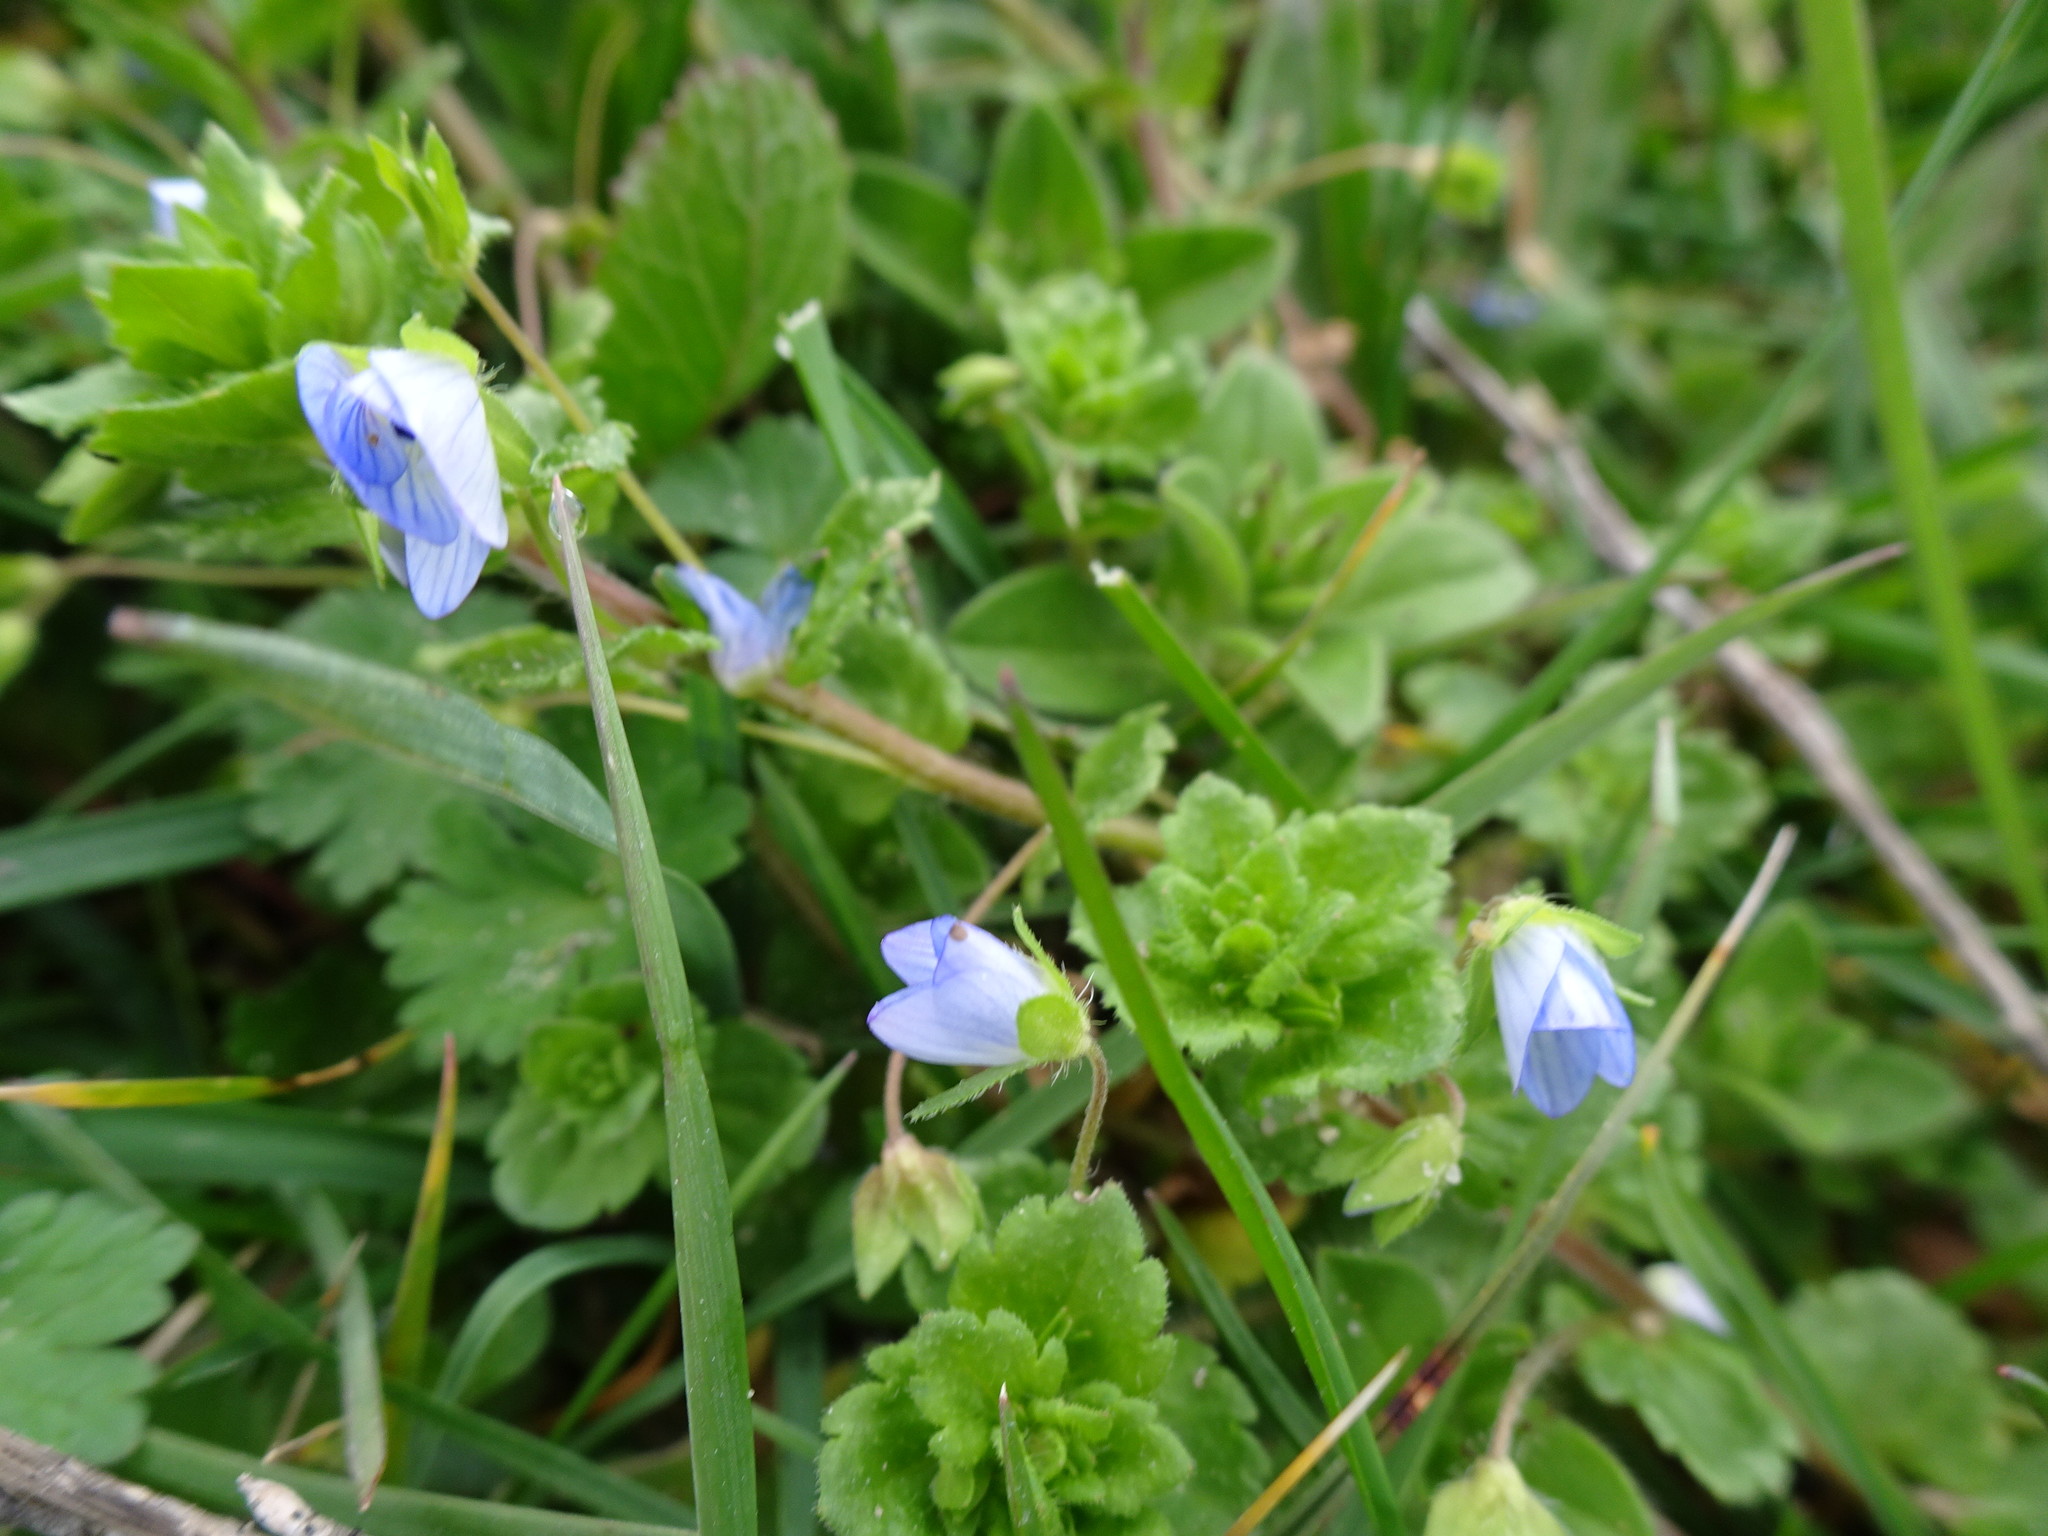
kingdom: Plantae
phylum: Tracheophyta
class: Magnoliopsida
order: Lamiales
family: Plantaginaceae
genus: Veronica
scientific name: Veronica persica
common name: Common field-speedwell
